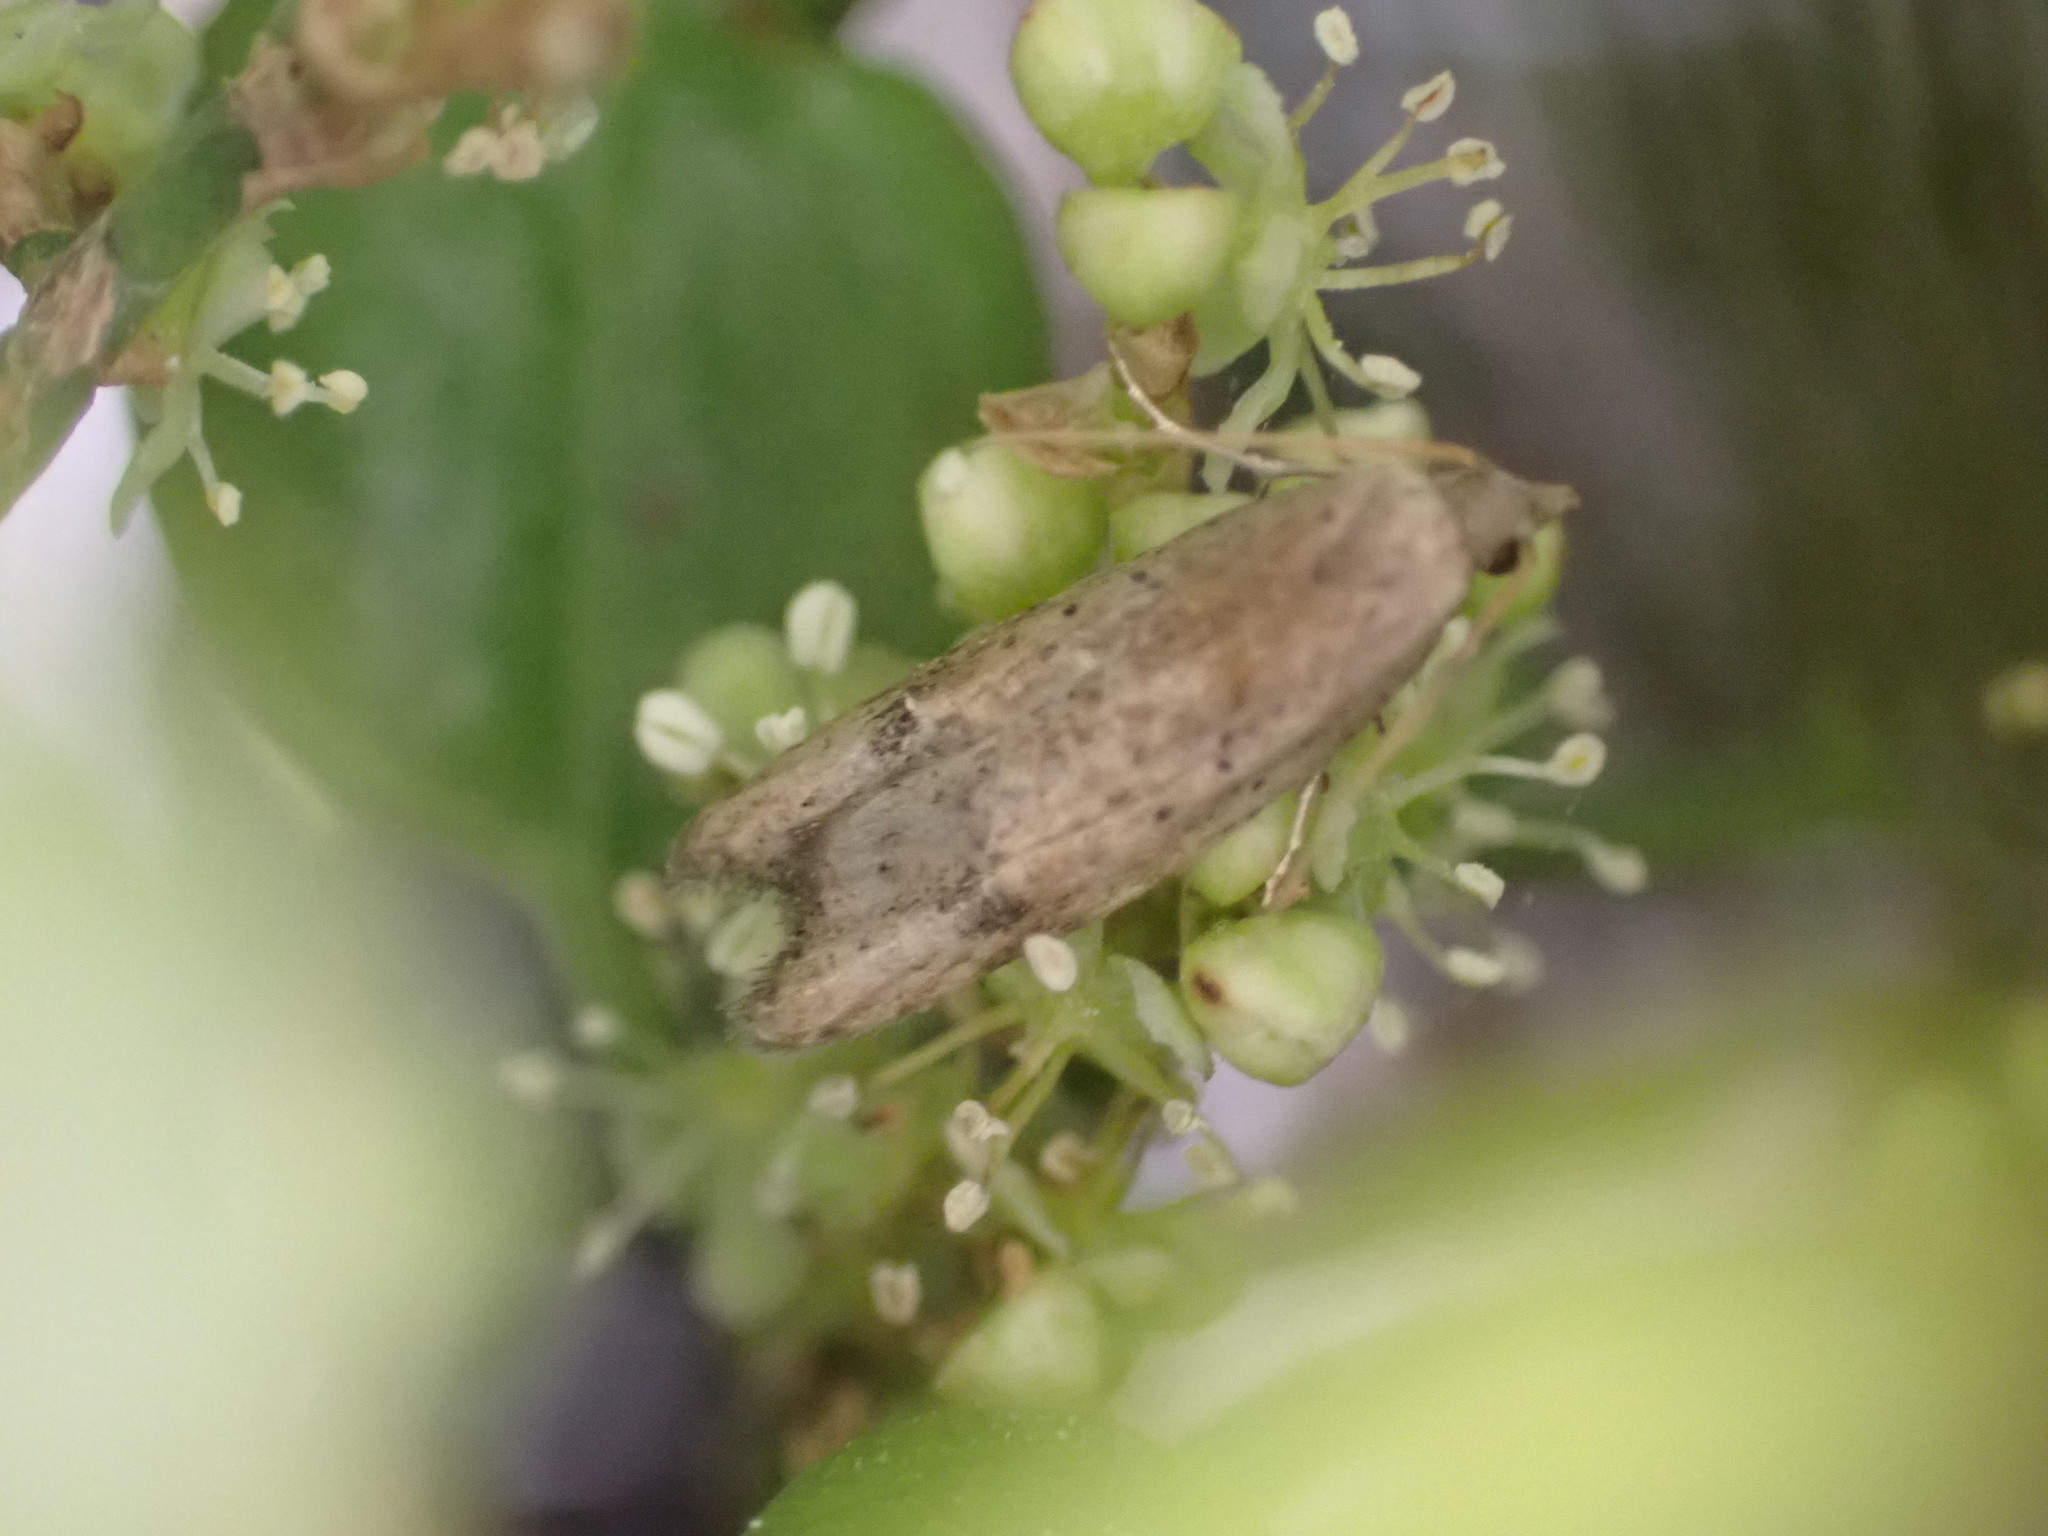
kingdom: Animalia
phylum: Arthropoda
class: Insecta
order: Lepidoptera
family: Carposinidae
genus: Carposina
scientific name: Carposina rubophaga
